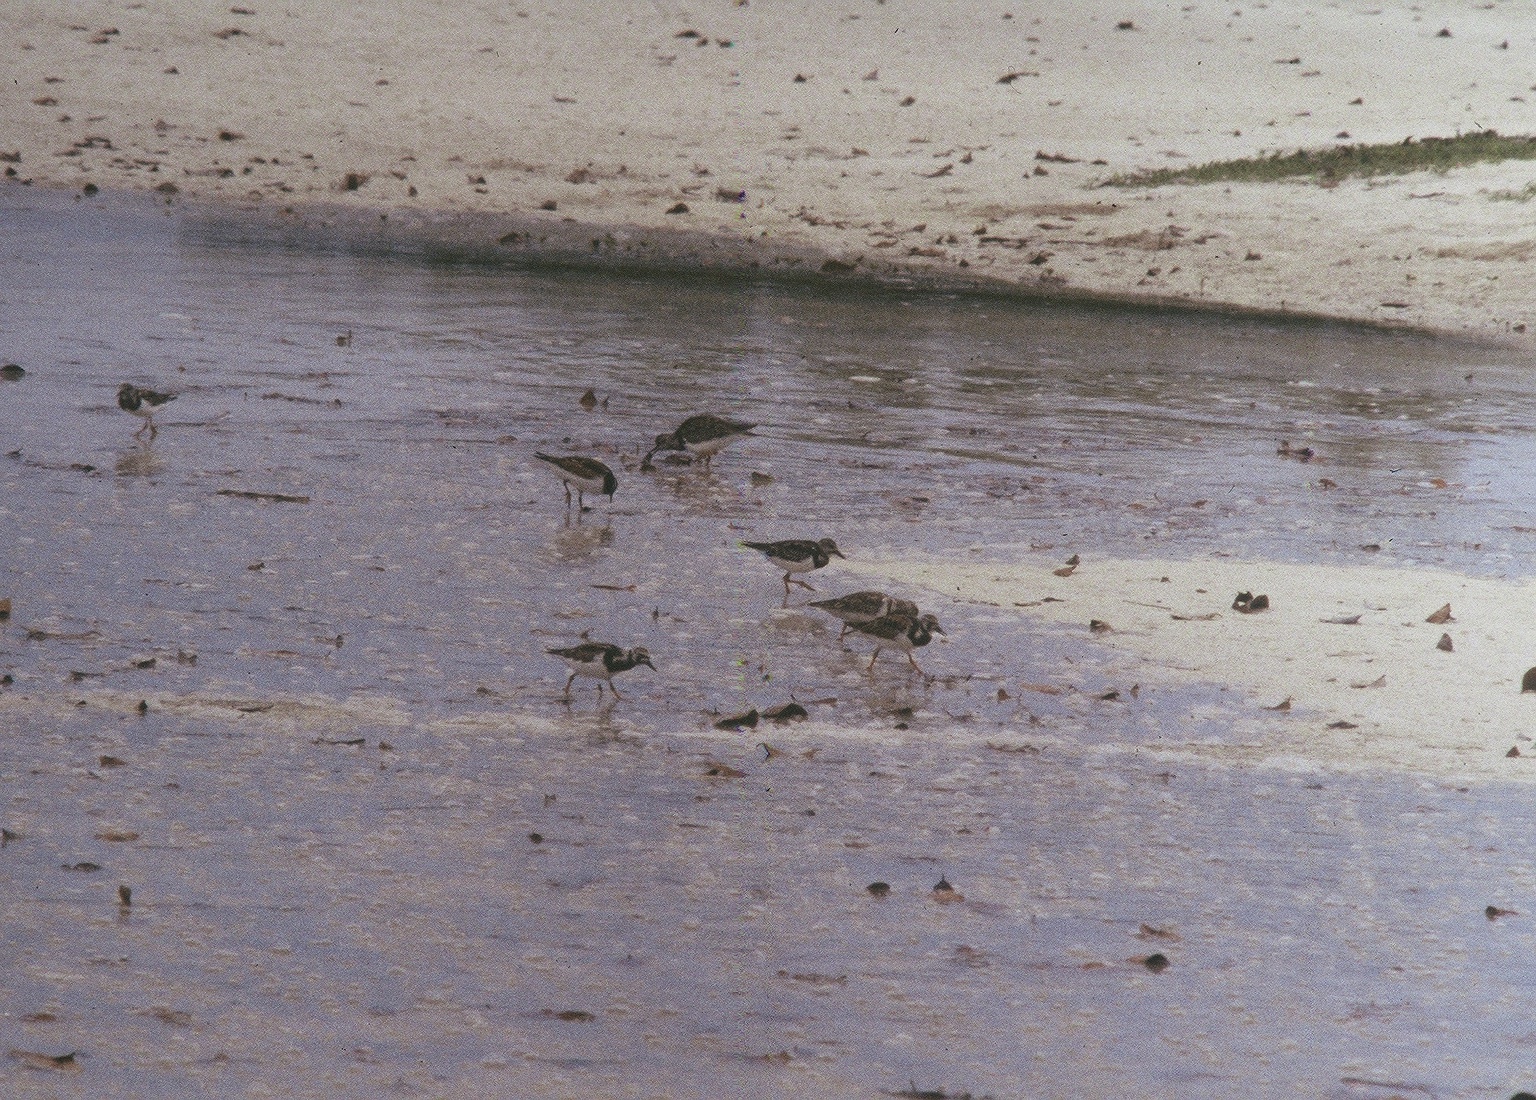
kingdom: Animalia
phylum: Chordata
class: Aves
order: Charadriiformes
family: Scolopacidae
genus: Arenaria
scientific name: Arenaria interpres
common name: Ruddy turnstone
